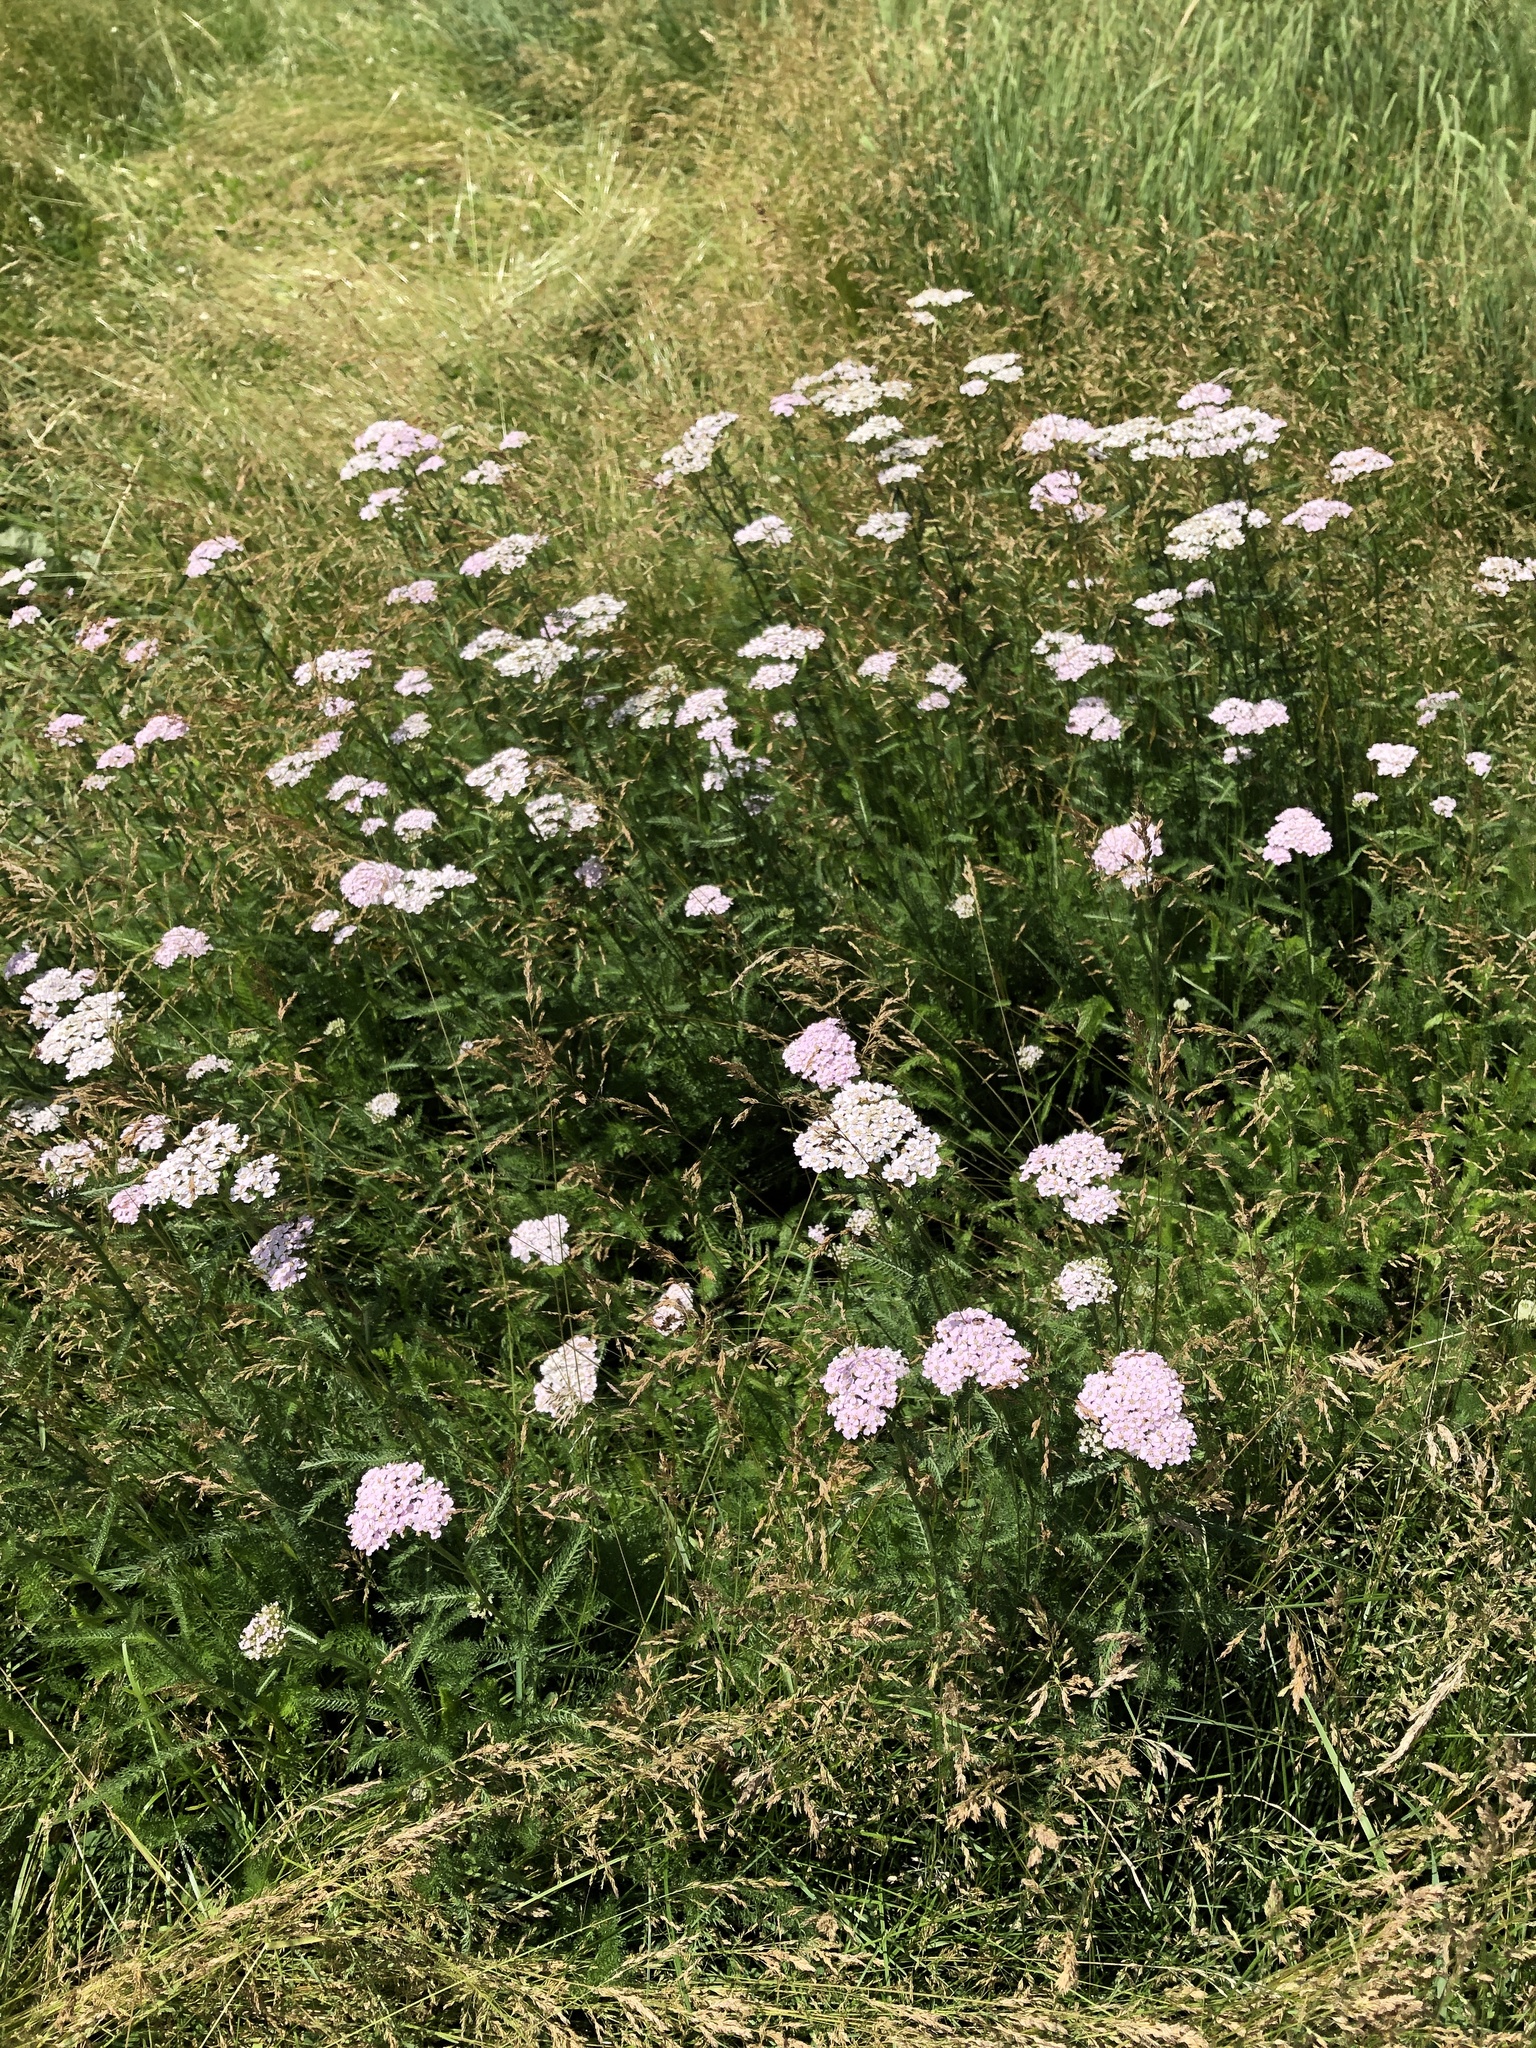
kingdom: Plantae
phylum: Tracheophyta
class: Magnoliopsida
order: Asterales
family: Asteraceae
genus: Achillea
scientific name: Achillea millefolium
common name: Yarrow
